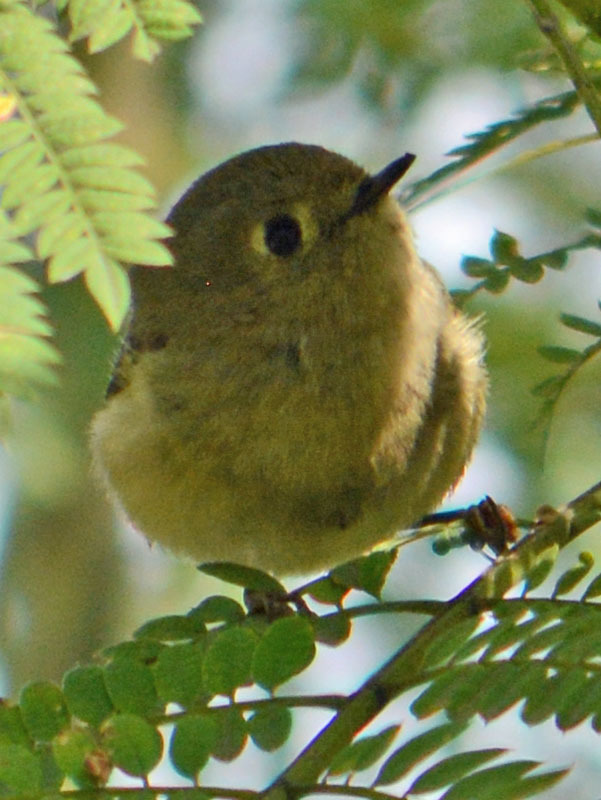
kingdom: Animalia
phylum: Chordata
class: Aves
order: Passeriformes
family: Regulidae
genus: Regulus
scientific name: Regulus calendula
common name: Ruby-crowned kinglet
